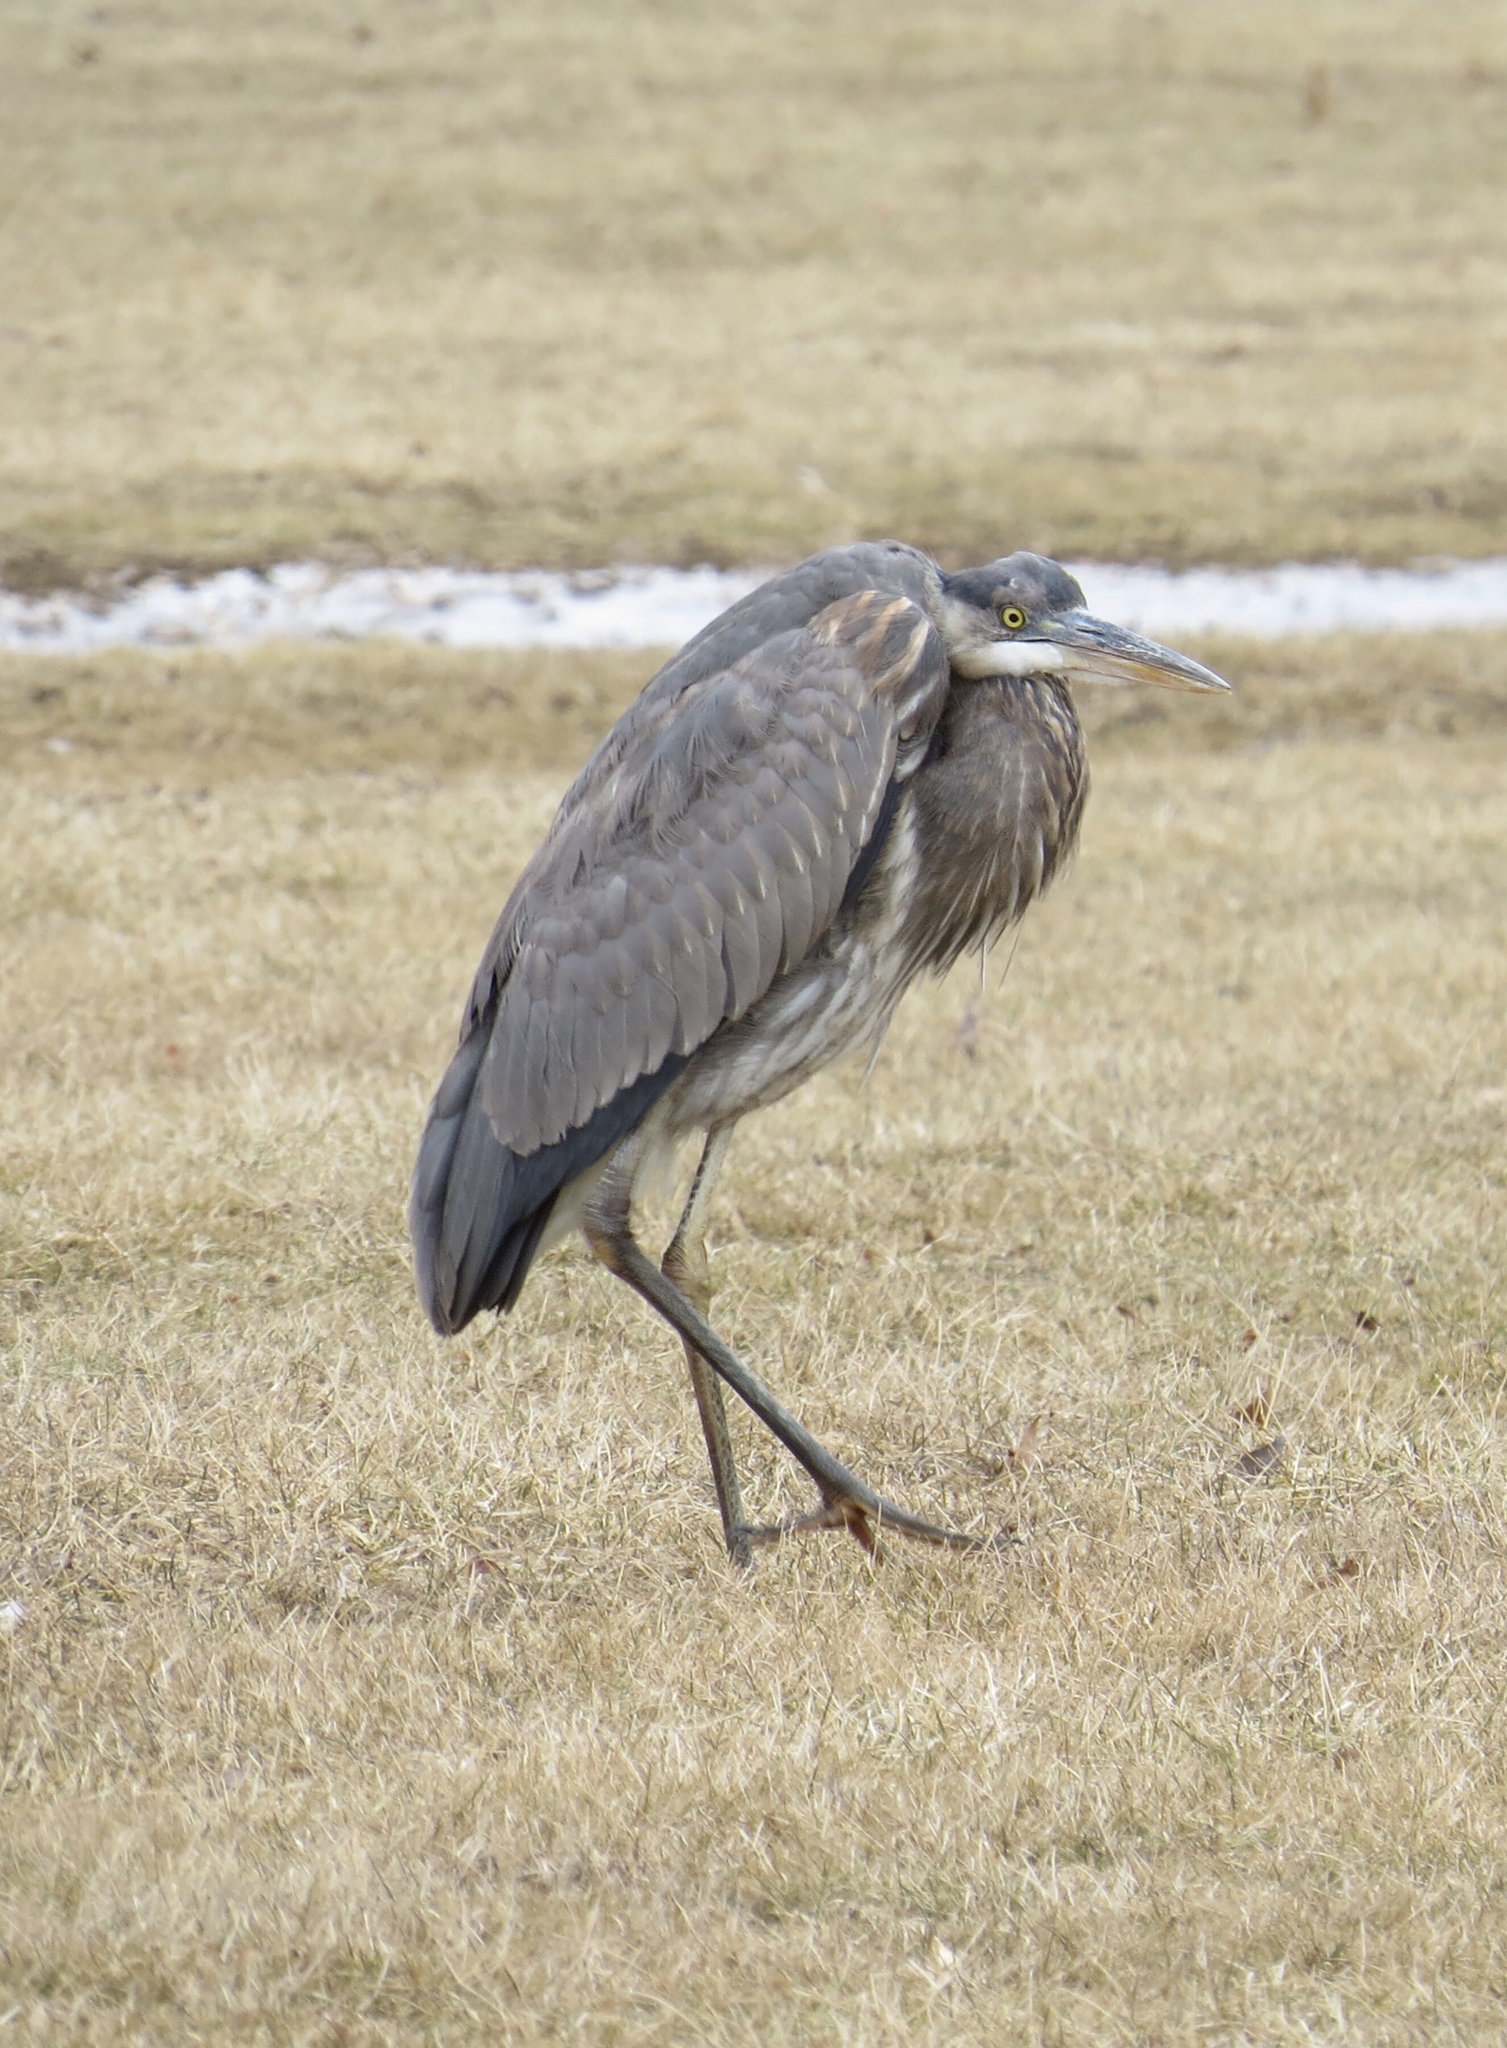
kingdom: Animalia
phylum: Chordata
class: Aves
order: Pelecaniformes
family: Ardeidae
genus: Ardea
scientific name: Ardea herodias
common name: Great blue heron
